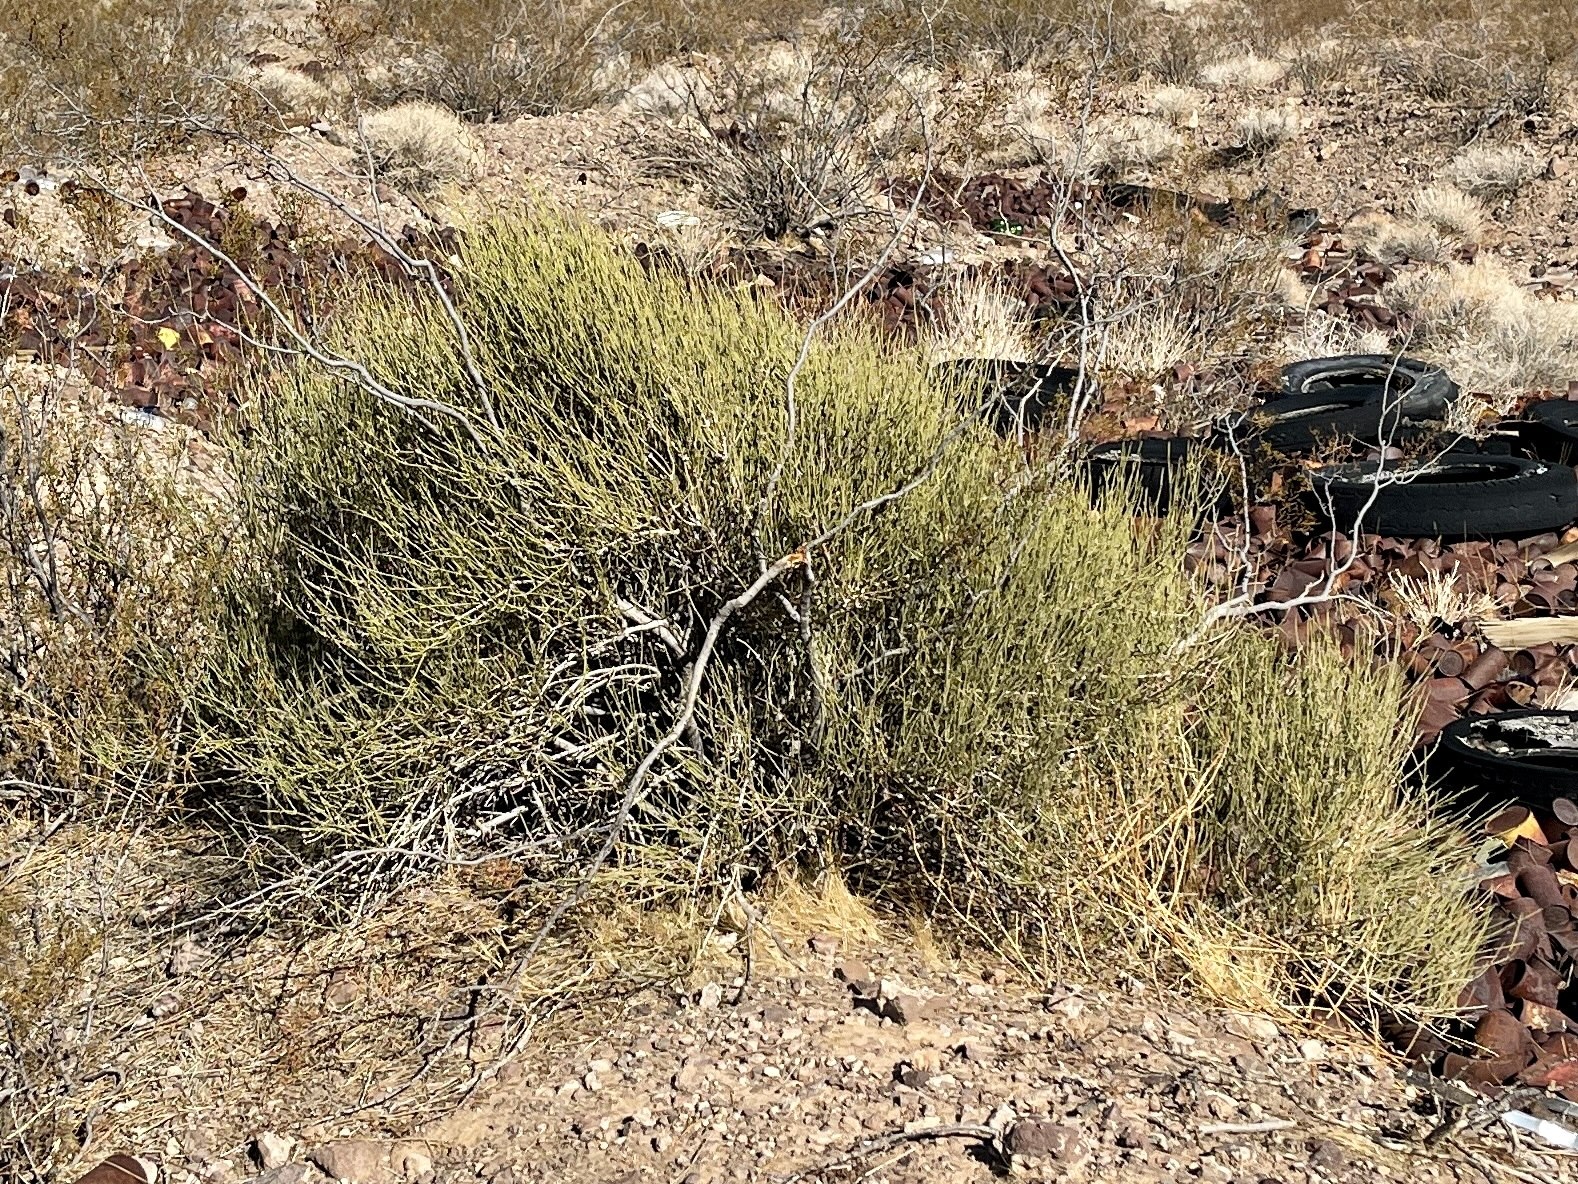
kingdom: Plantae
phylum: Tracheophyta
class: Gnetopsida
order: Ephedrales
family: Ephedraceae
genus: Ephedra
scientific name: Ephedra viridis
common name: Green ephedra
